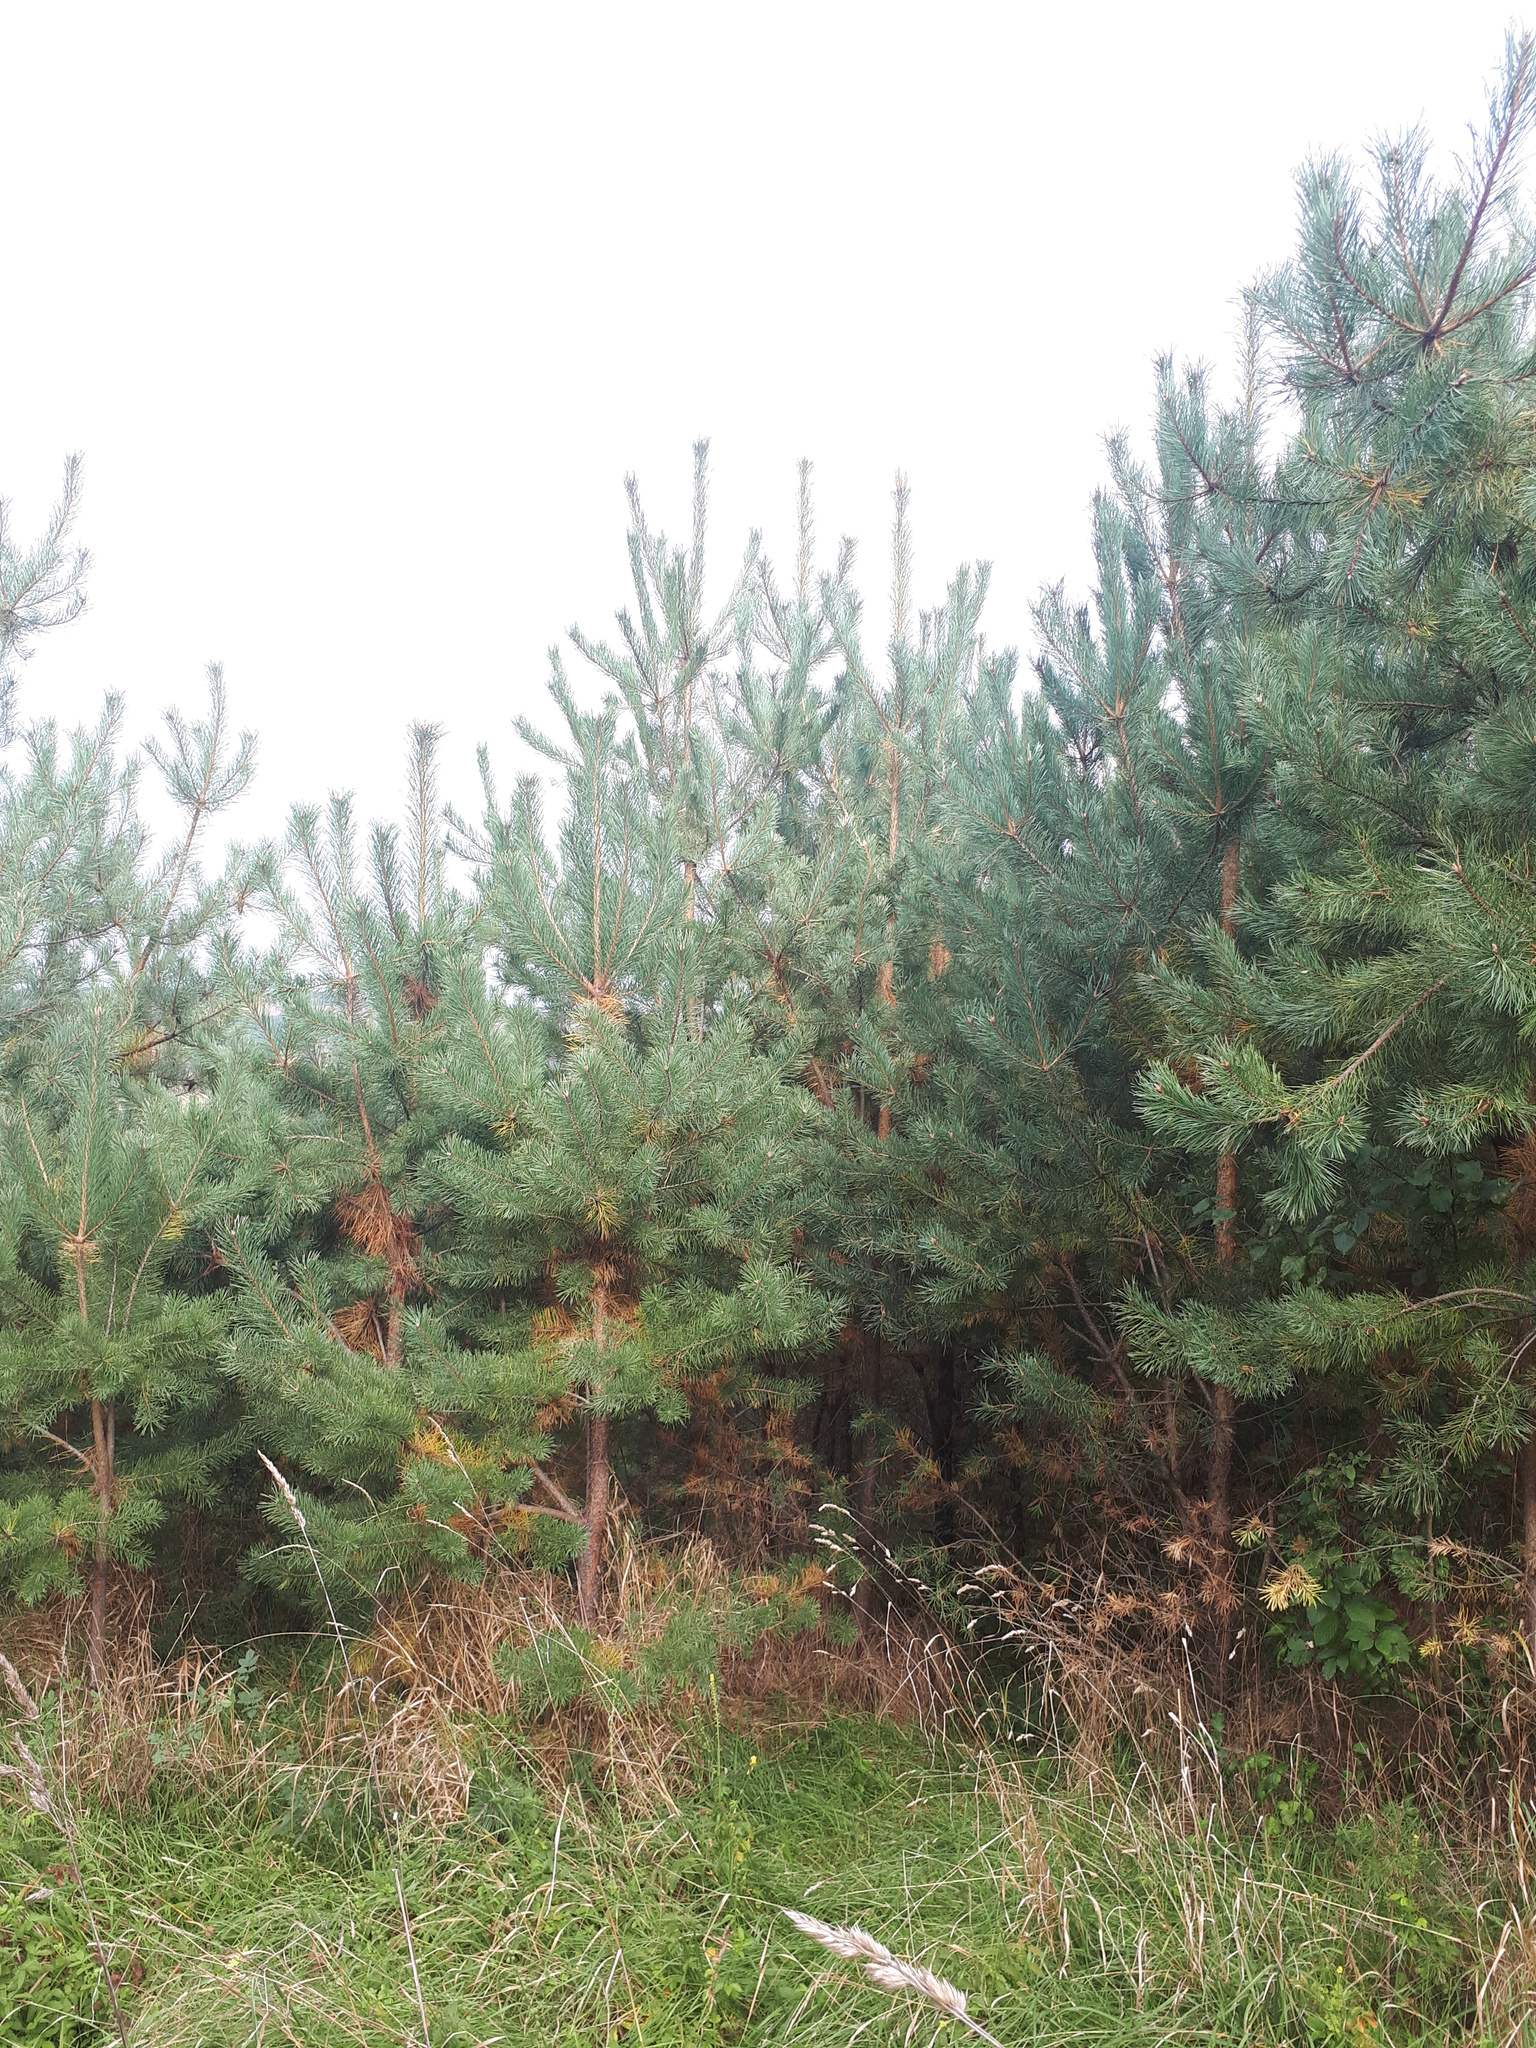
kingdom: Plantae
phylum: Tracheophyta
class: Pinopsida
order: Pinales
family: Pinaceae
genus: Pinus
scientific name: Pinus sylvestris
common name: Scots pine
